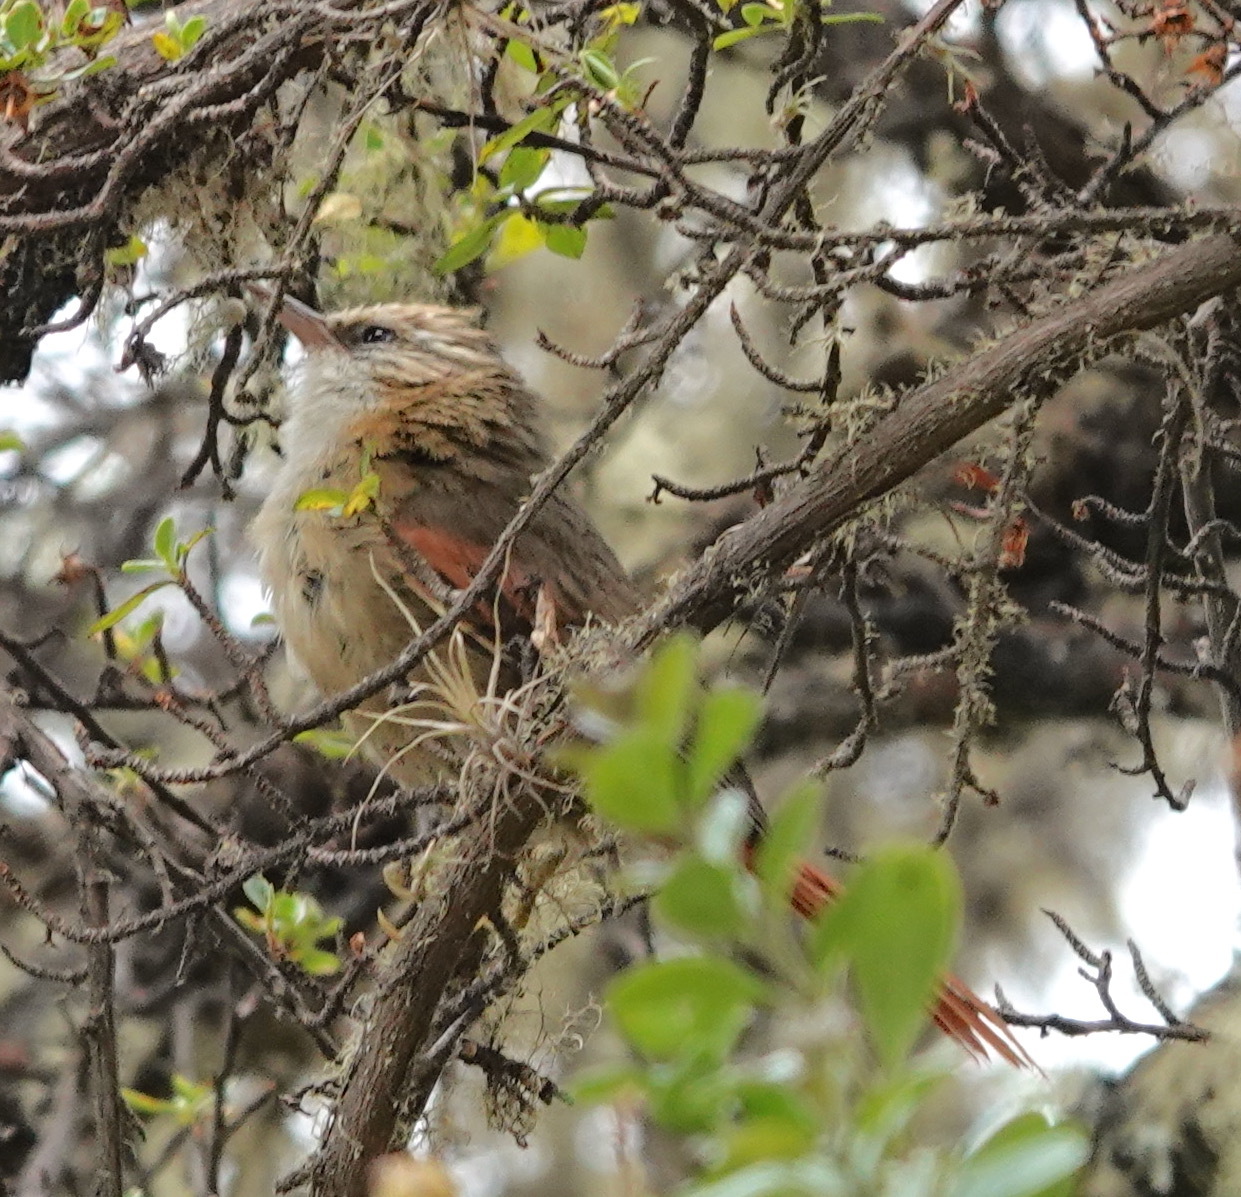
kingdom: Animalia
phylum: Chordata
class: Aves
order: Passeriformes
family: Furnariidae
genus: Cranioleuca
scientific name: Cranioleuca albicapilla
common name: Creamy-crested spinetail
